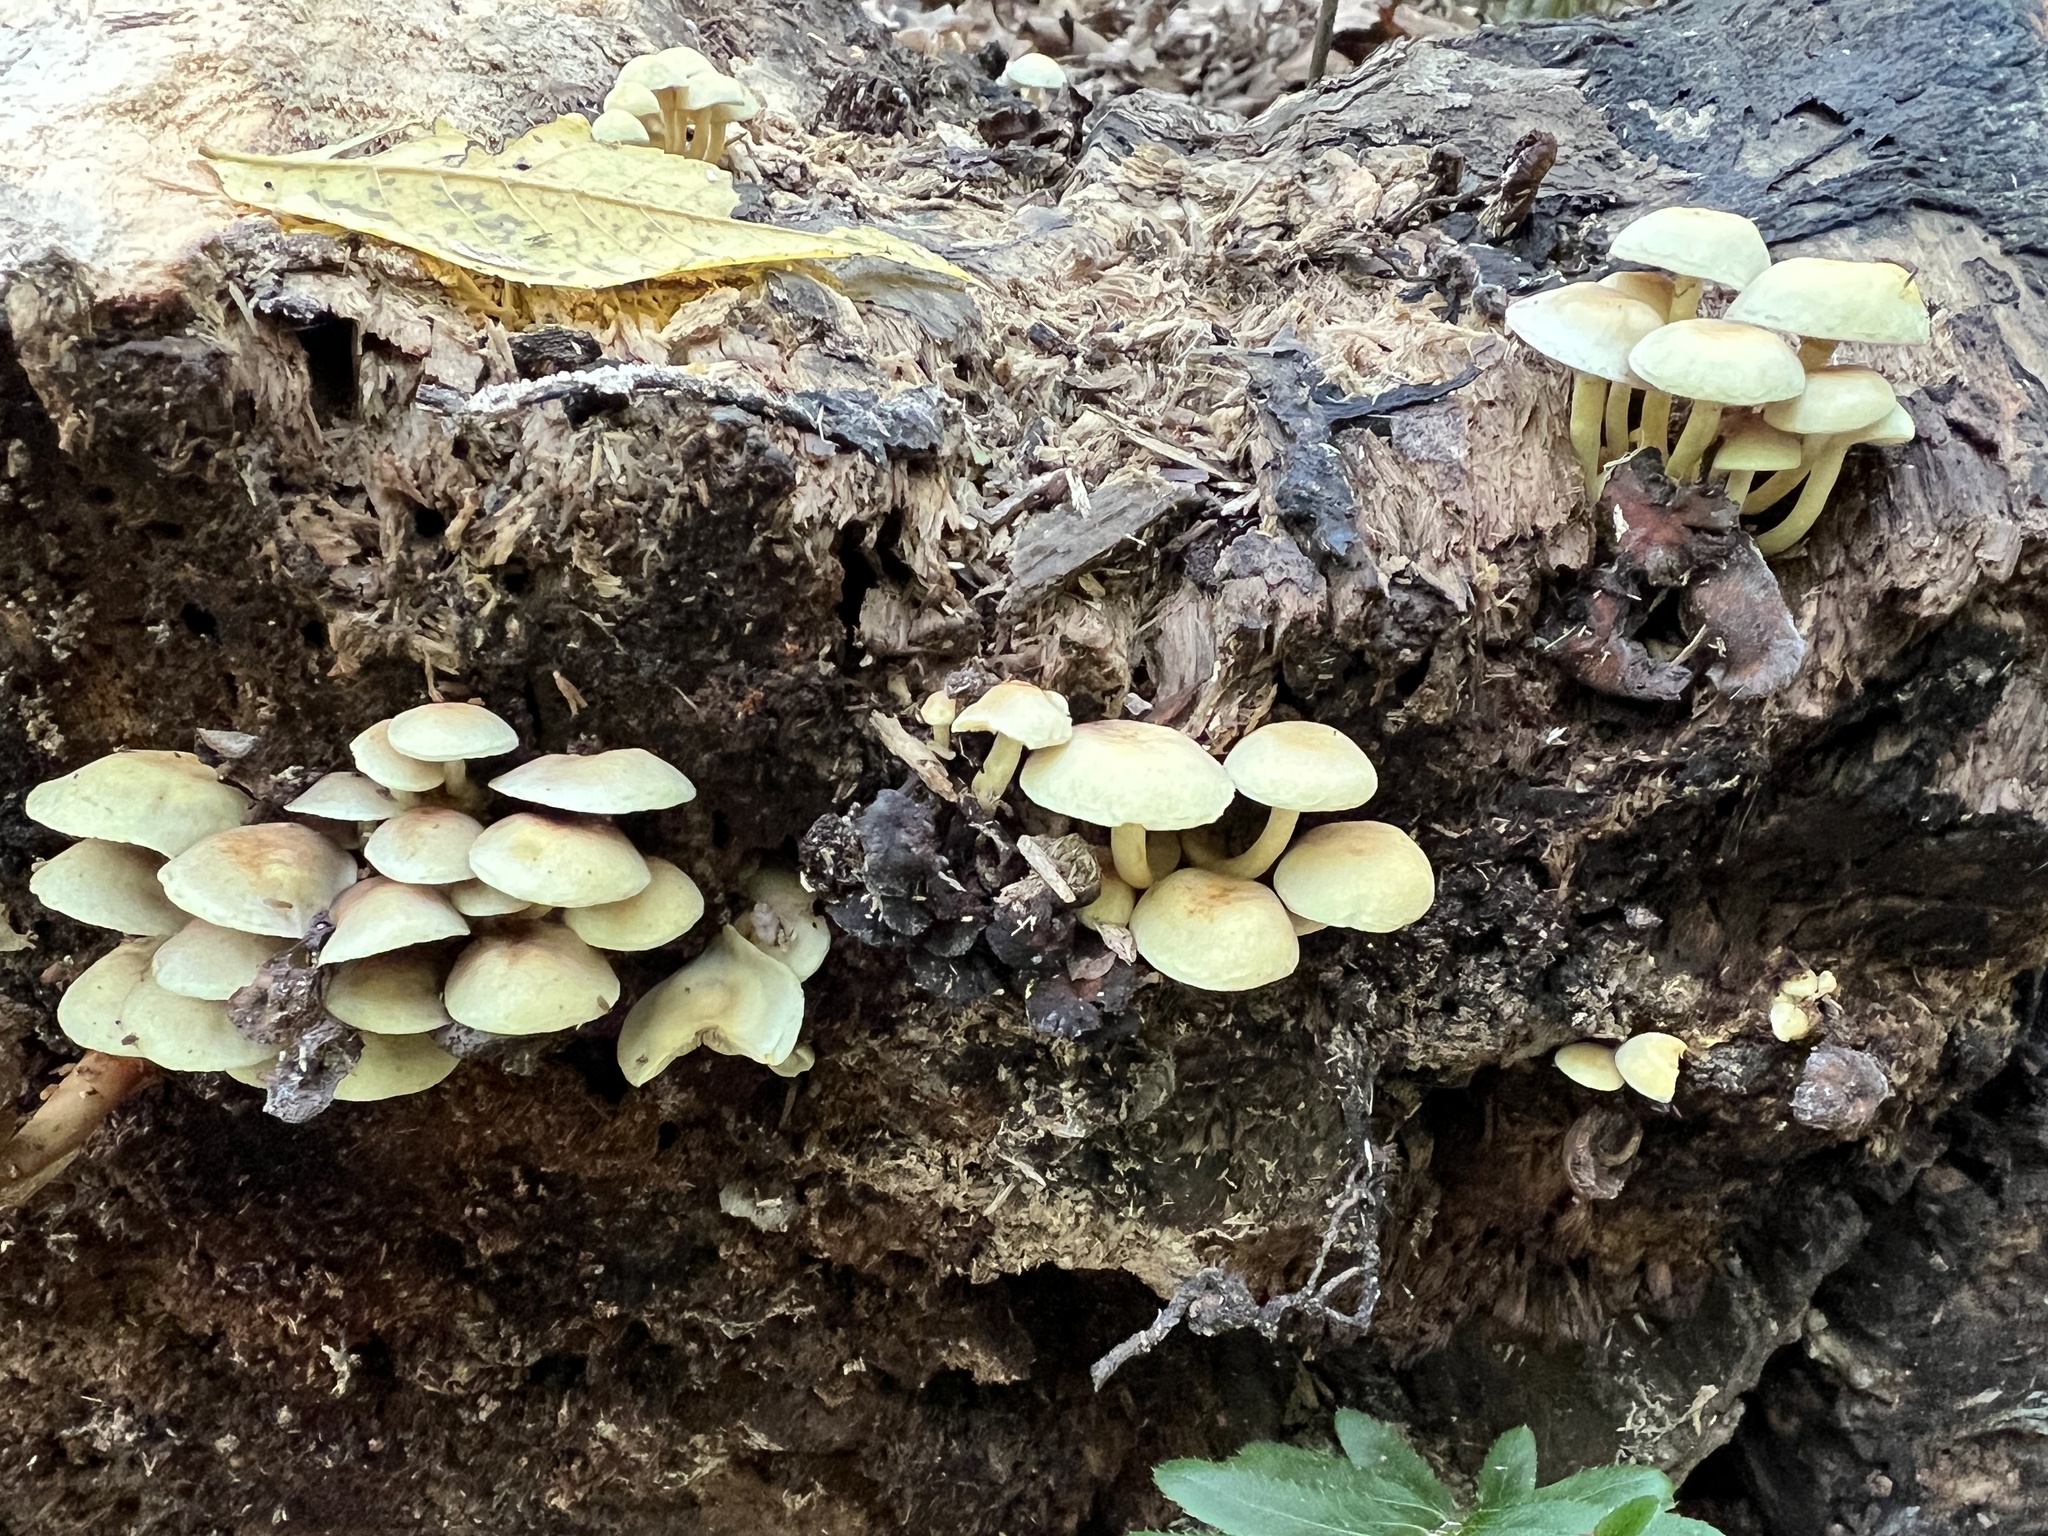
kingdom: Fungi
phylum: Basidiomycota
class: Agaricomycetes
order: Agaricales
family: Strophariaceae
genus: Hypholoma
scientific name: Hypholoma fasciculare
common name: Sulphur tuft
